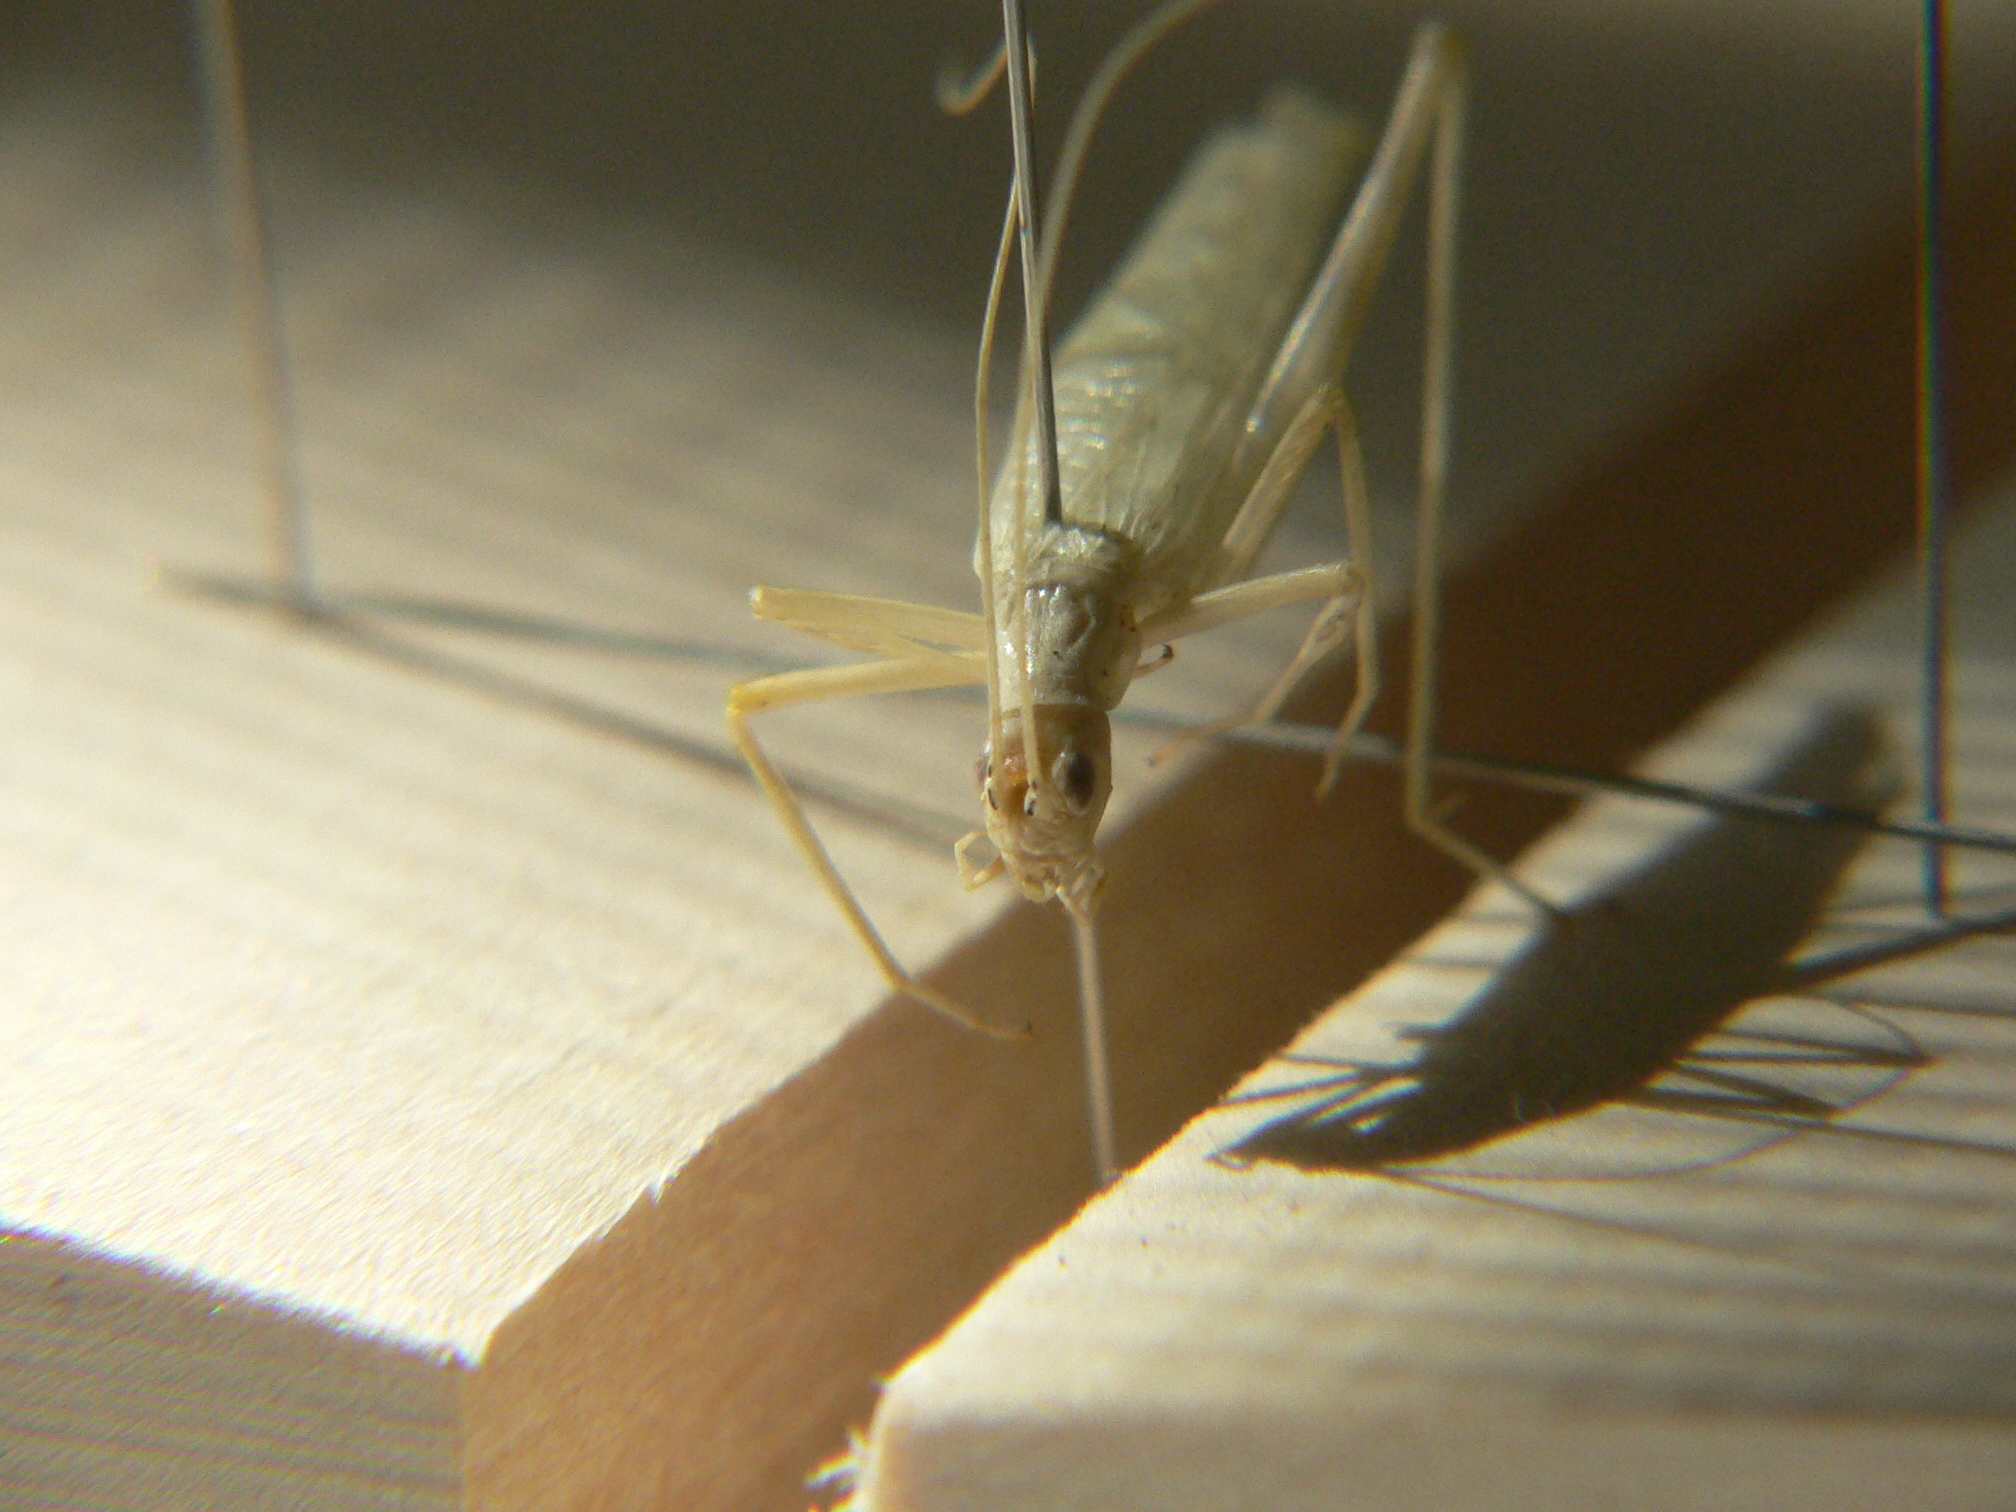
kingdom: Animalia
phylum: Arthropoda
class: Insecta
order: Orthoptera
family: Gryllidae
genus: Oecanthus
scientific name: Oecanthus exclamationis
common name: Davis's tree cricket
